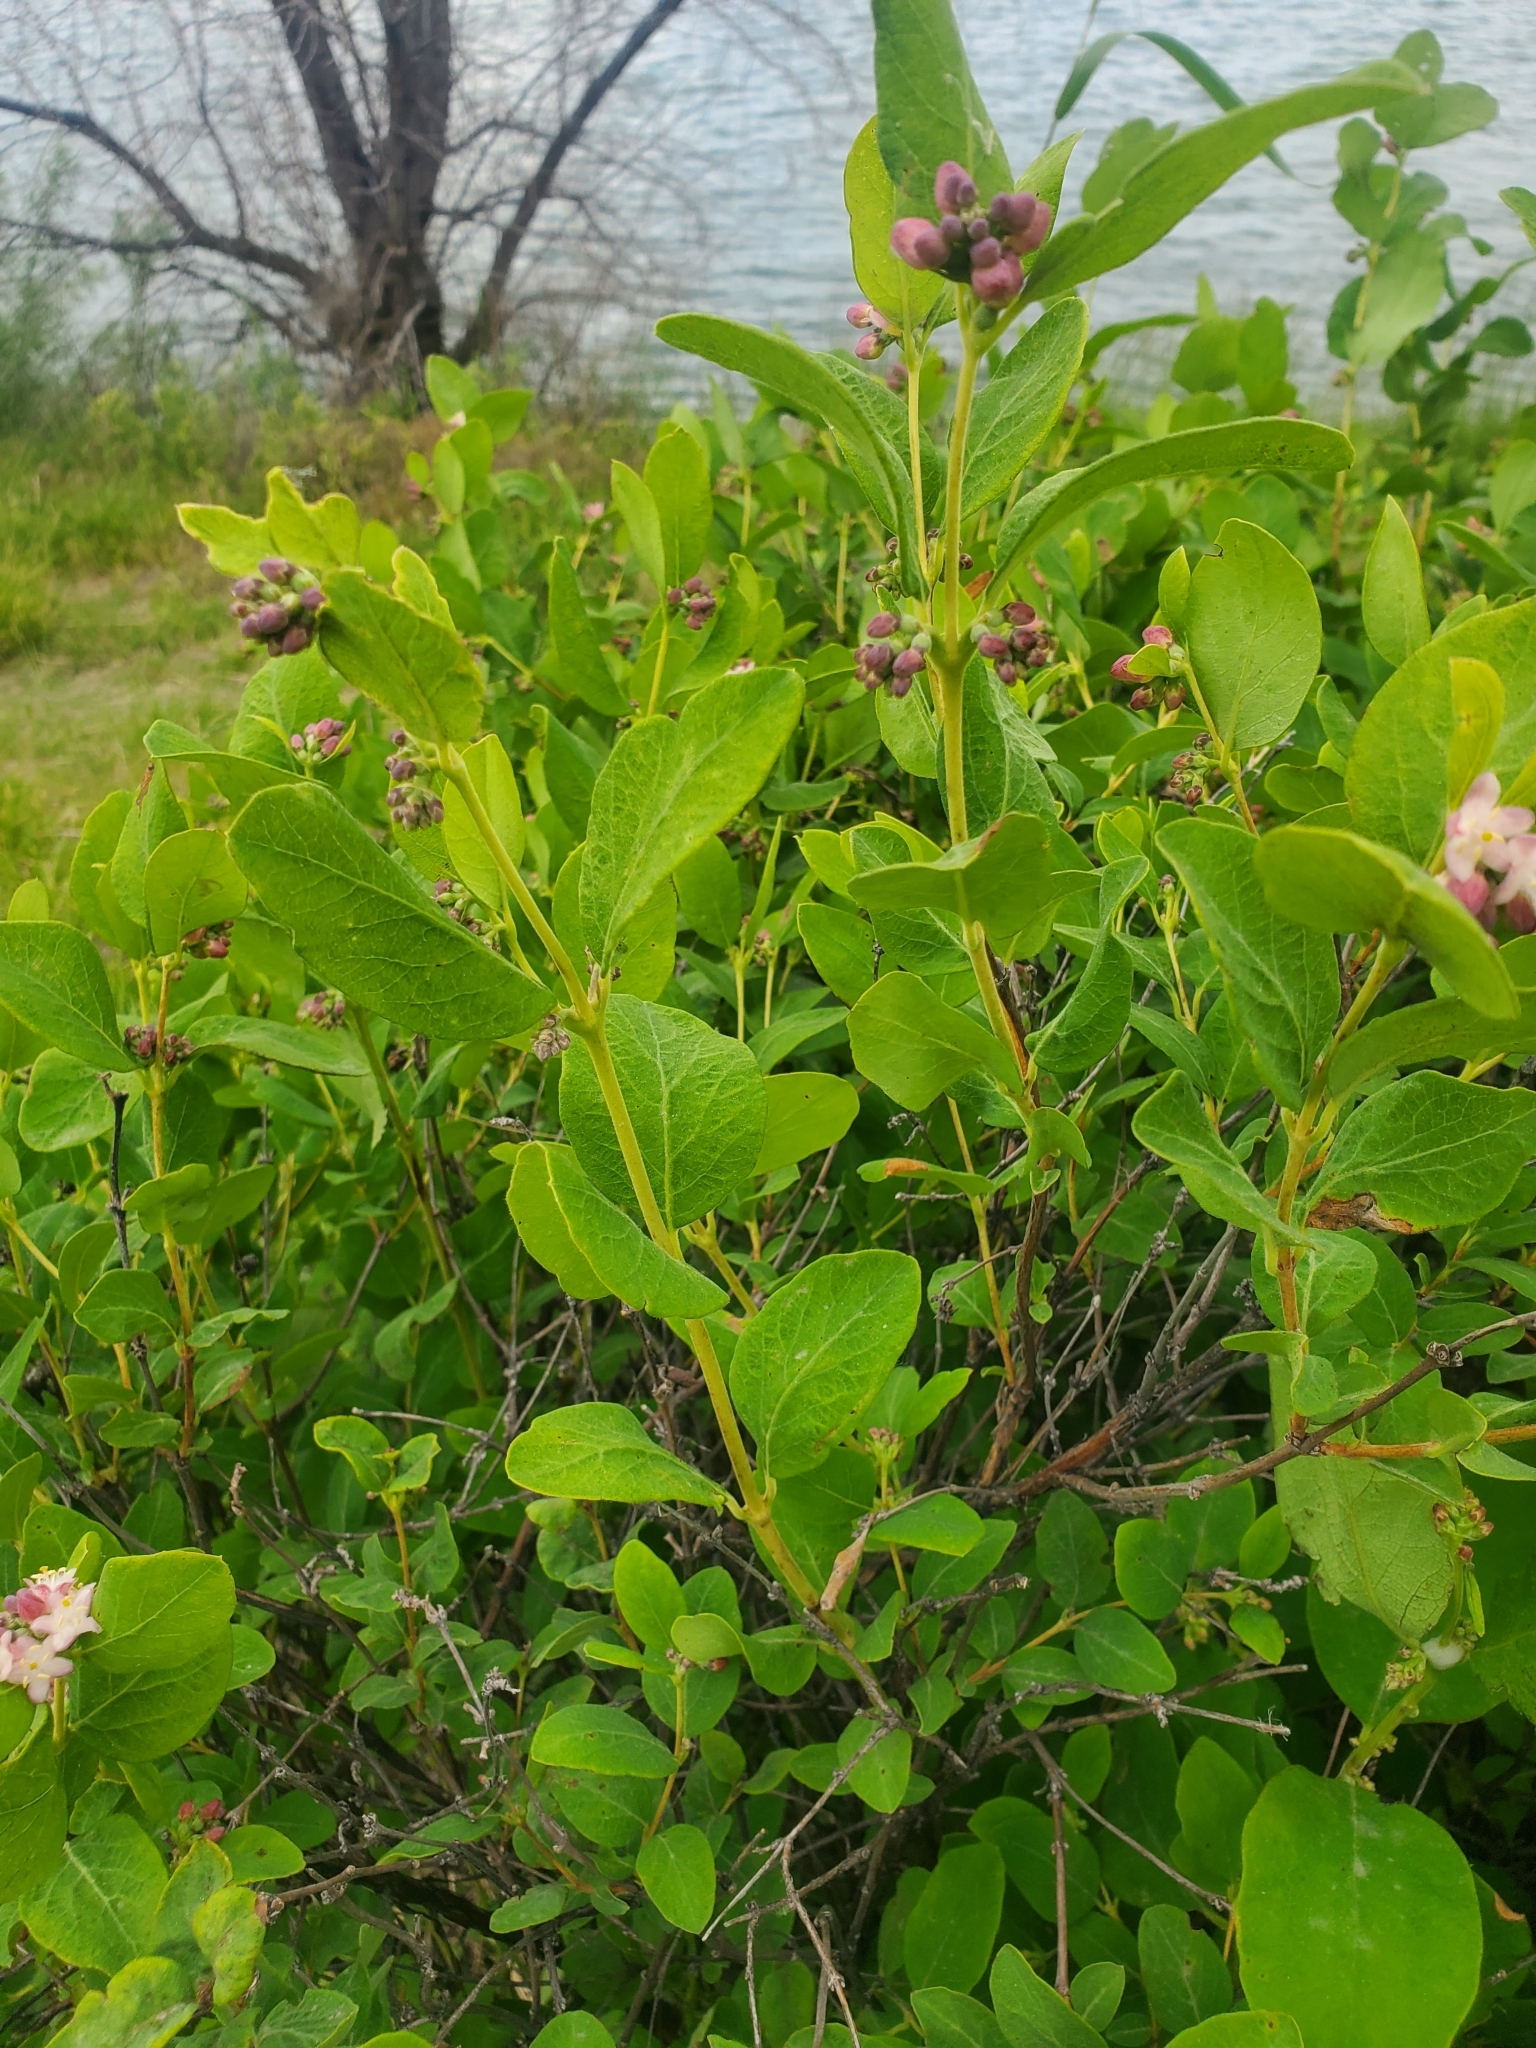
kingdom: Plantae
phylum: Tracheophyta
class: Magnoliopsida
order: Dipsacales
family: Caprifoliaceae
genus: Symphoricarpos
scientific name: Symphoricarpos occidentalis
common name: Wolfberry
